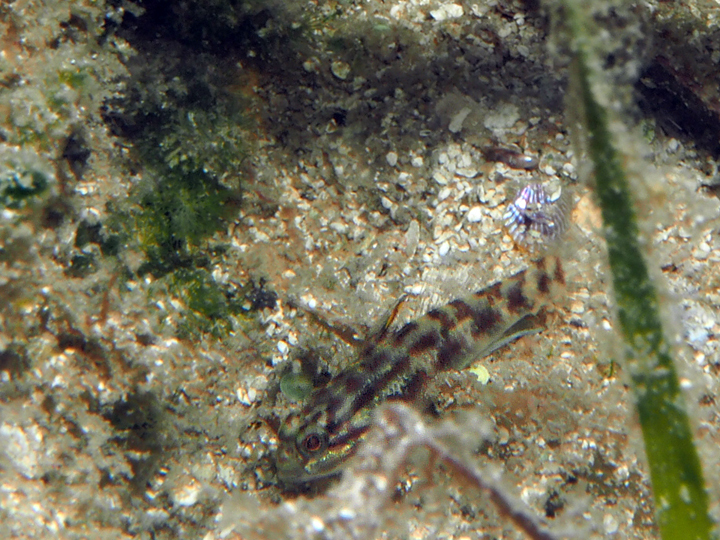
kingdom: Animalia
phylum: Chordata
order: Perciformes
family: Gobiidae
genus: Lophogobius
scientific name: Lophogobius cyprinoides
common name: Crested goby
